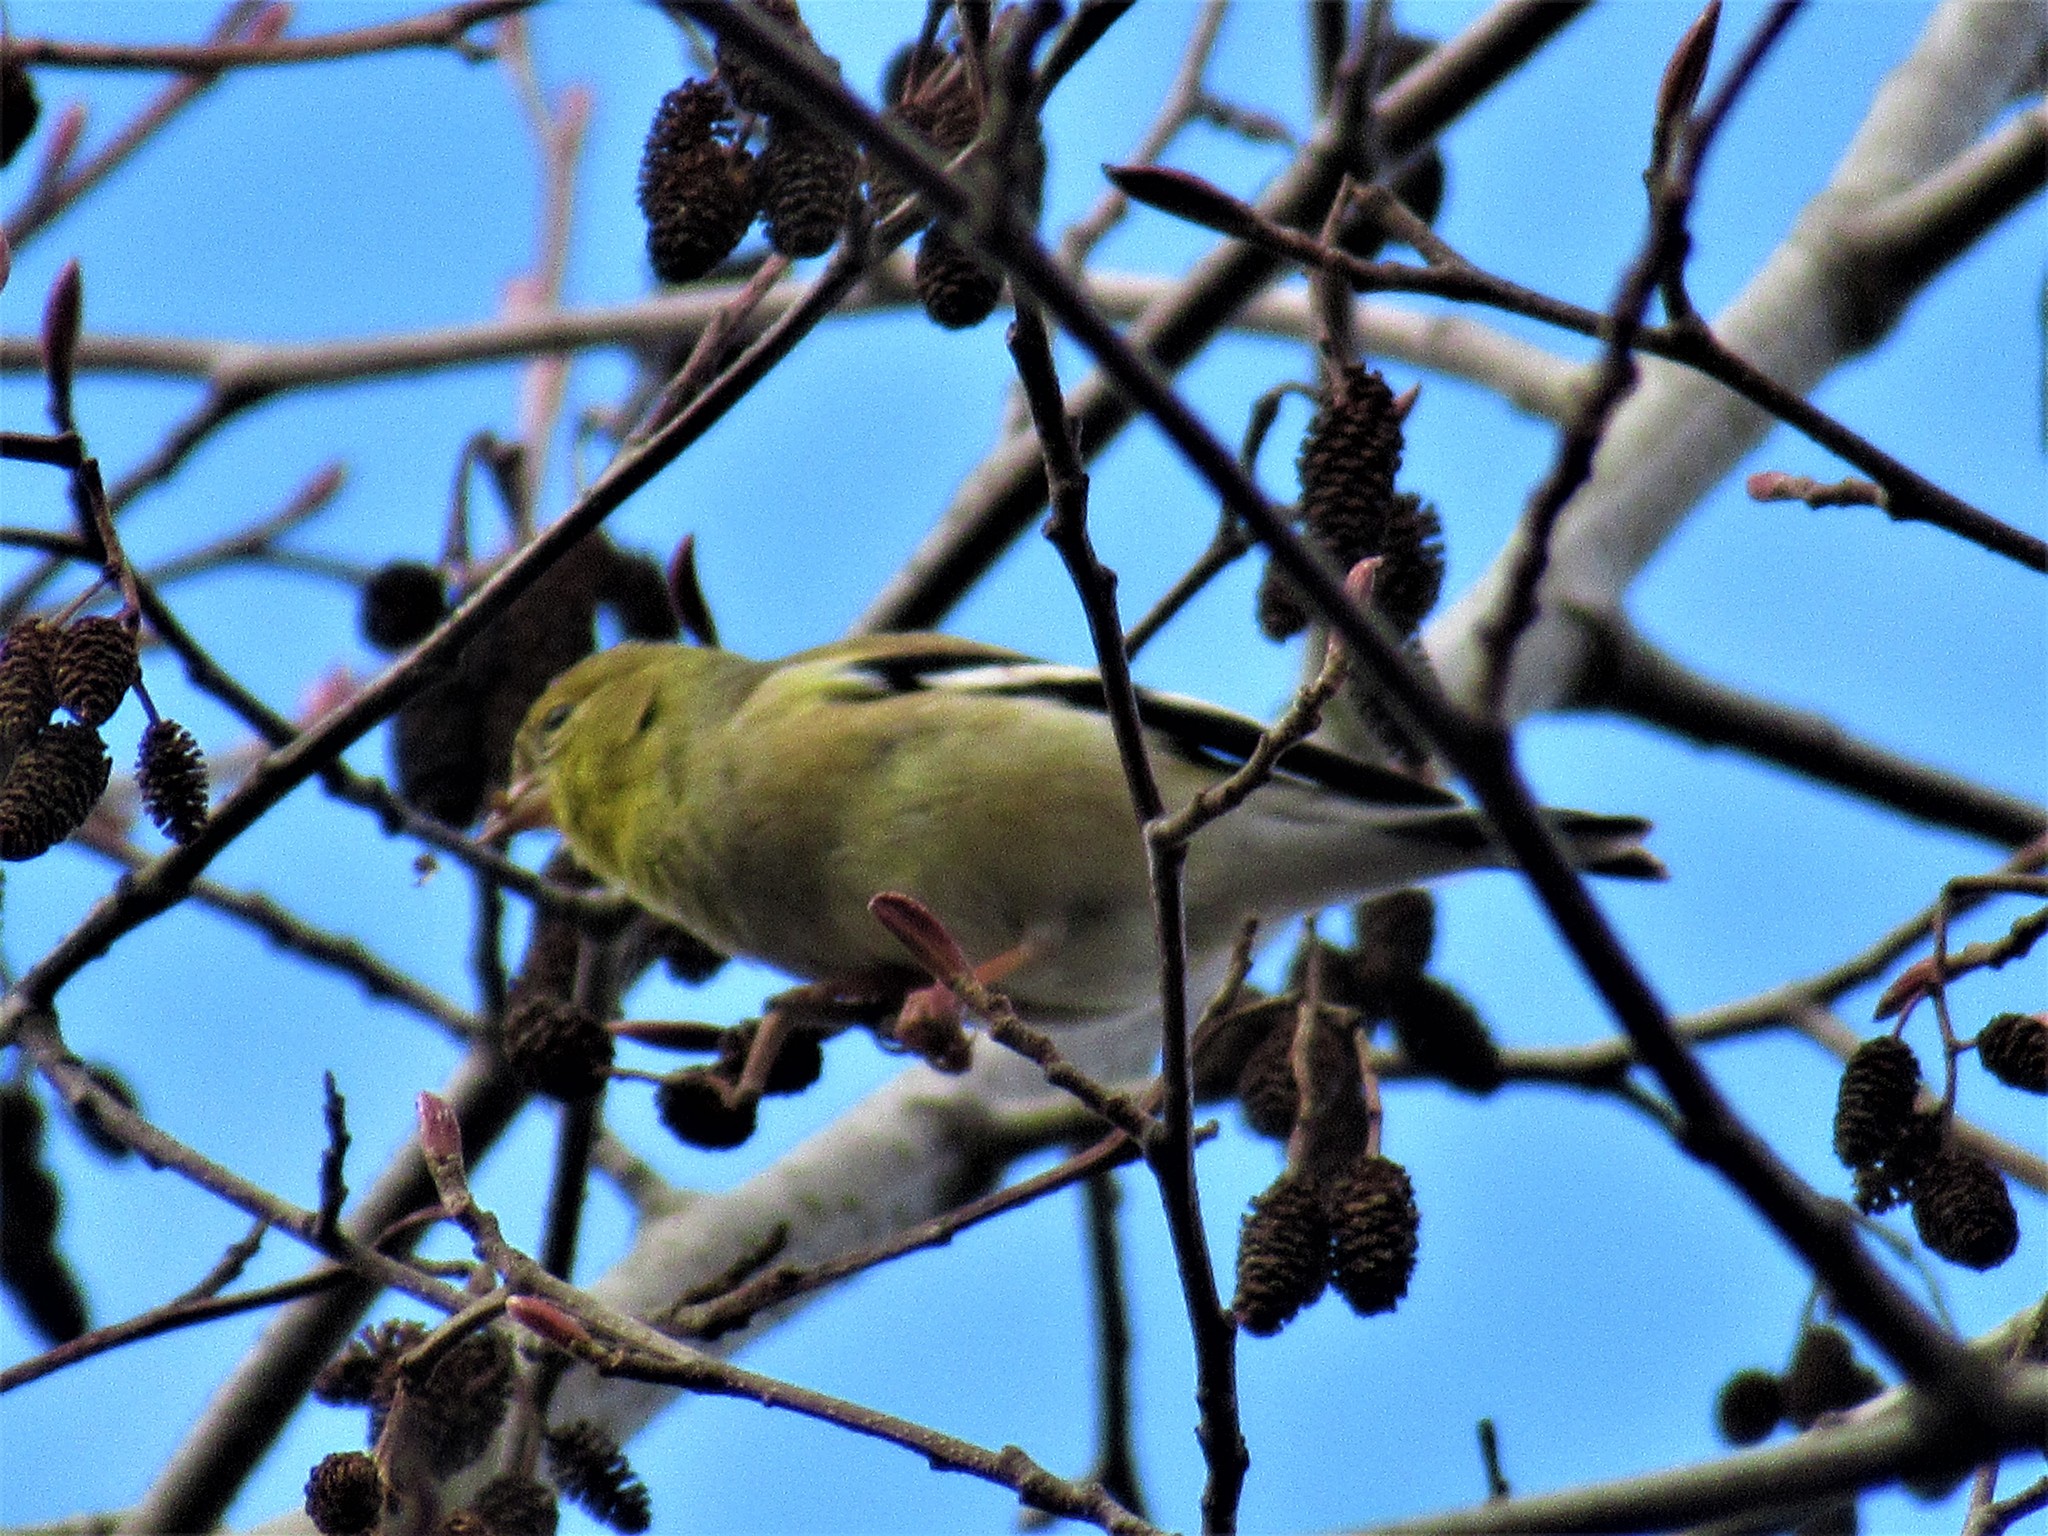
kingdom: Animalia
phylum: Chordata
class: Aves
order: Passeriformes
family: Fringillidae
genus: Spinus
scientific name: Spinus tristis
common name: American goldfinch
